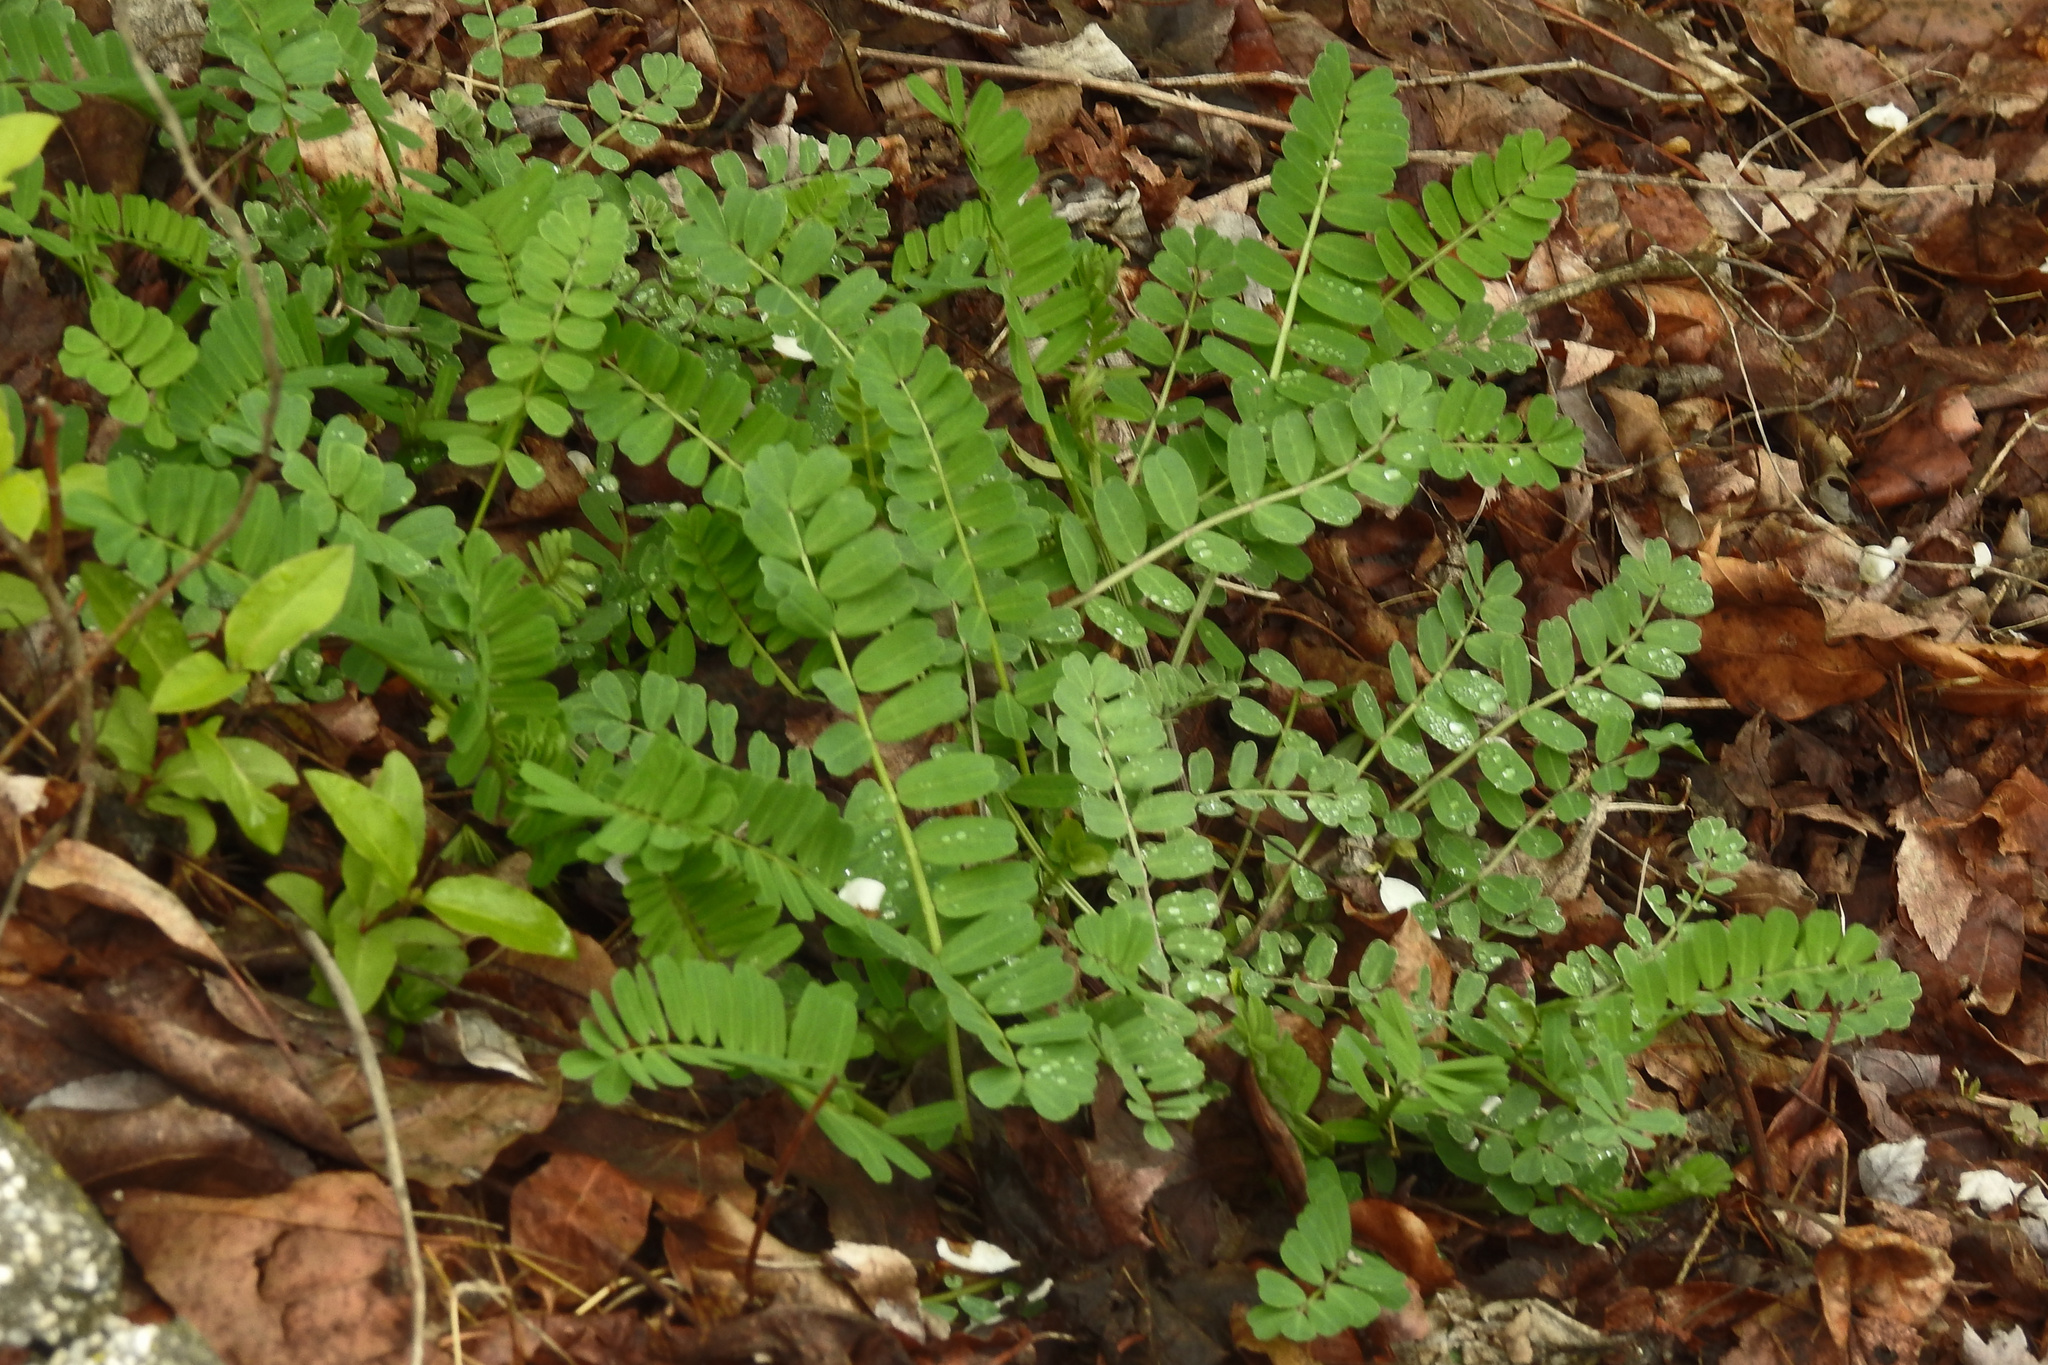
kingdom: Plantae
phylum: Tracheophyta
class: Magnoliopsida
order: Fabales
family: Fabaceae
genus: Coronilla
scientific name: Coronilla varia
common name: Crownvetch
